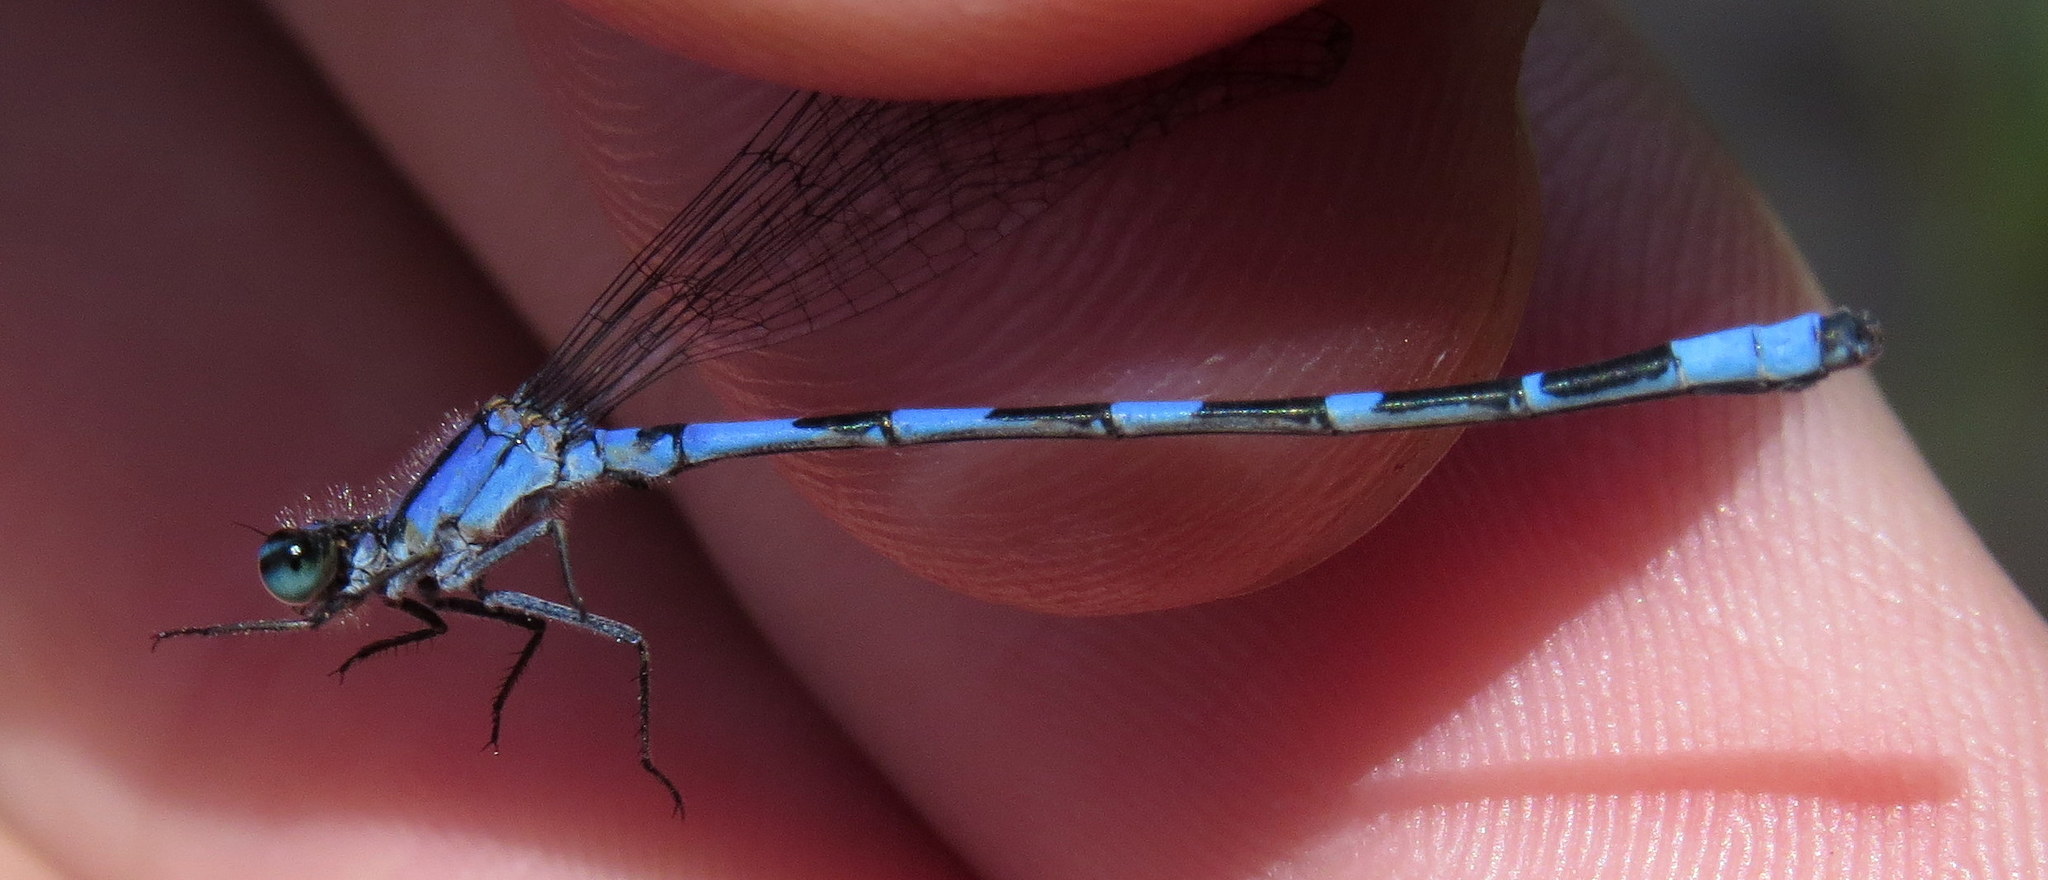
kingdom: Animalia
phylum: Arthropoda
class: Insecta
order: Odonata
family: Coenagrionidae
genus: Enallagma
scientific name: Enallagma minusculum
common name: Little bluet
